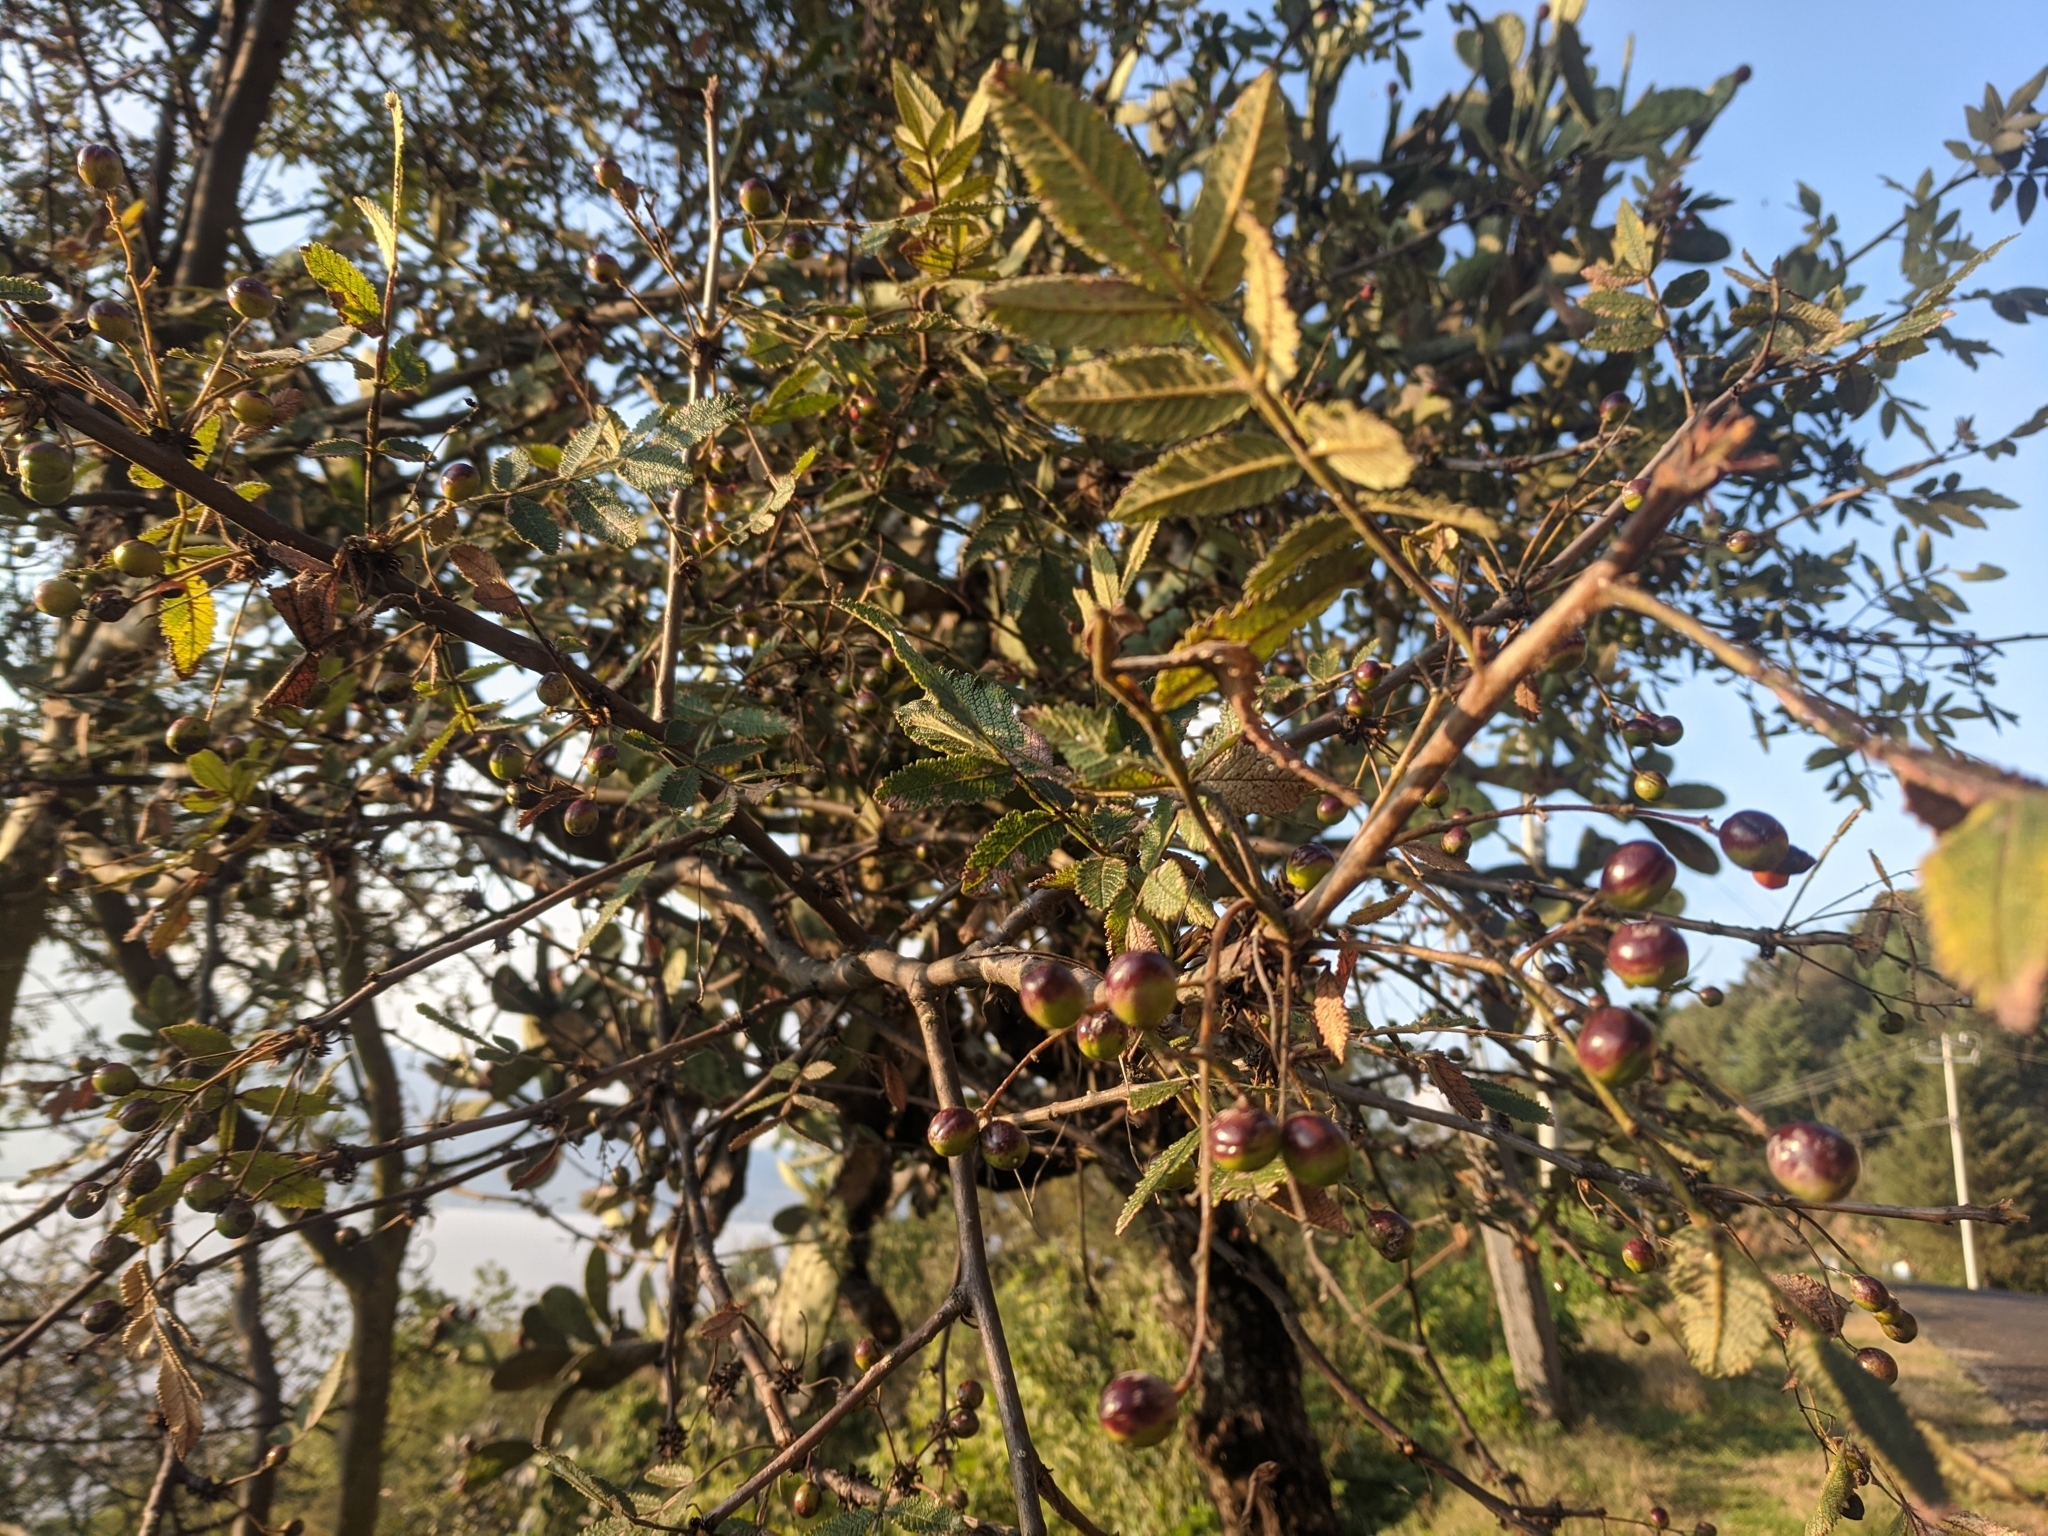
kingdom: Plantae
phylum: Tracheophyta
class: Magnoliopsida
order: Sapindales
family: Burseraceae
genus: Bursera
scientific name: Bursera copallifera
